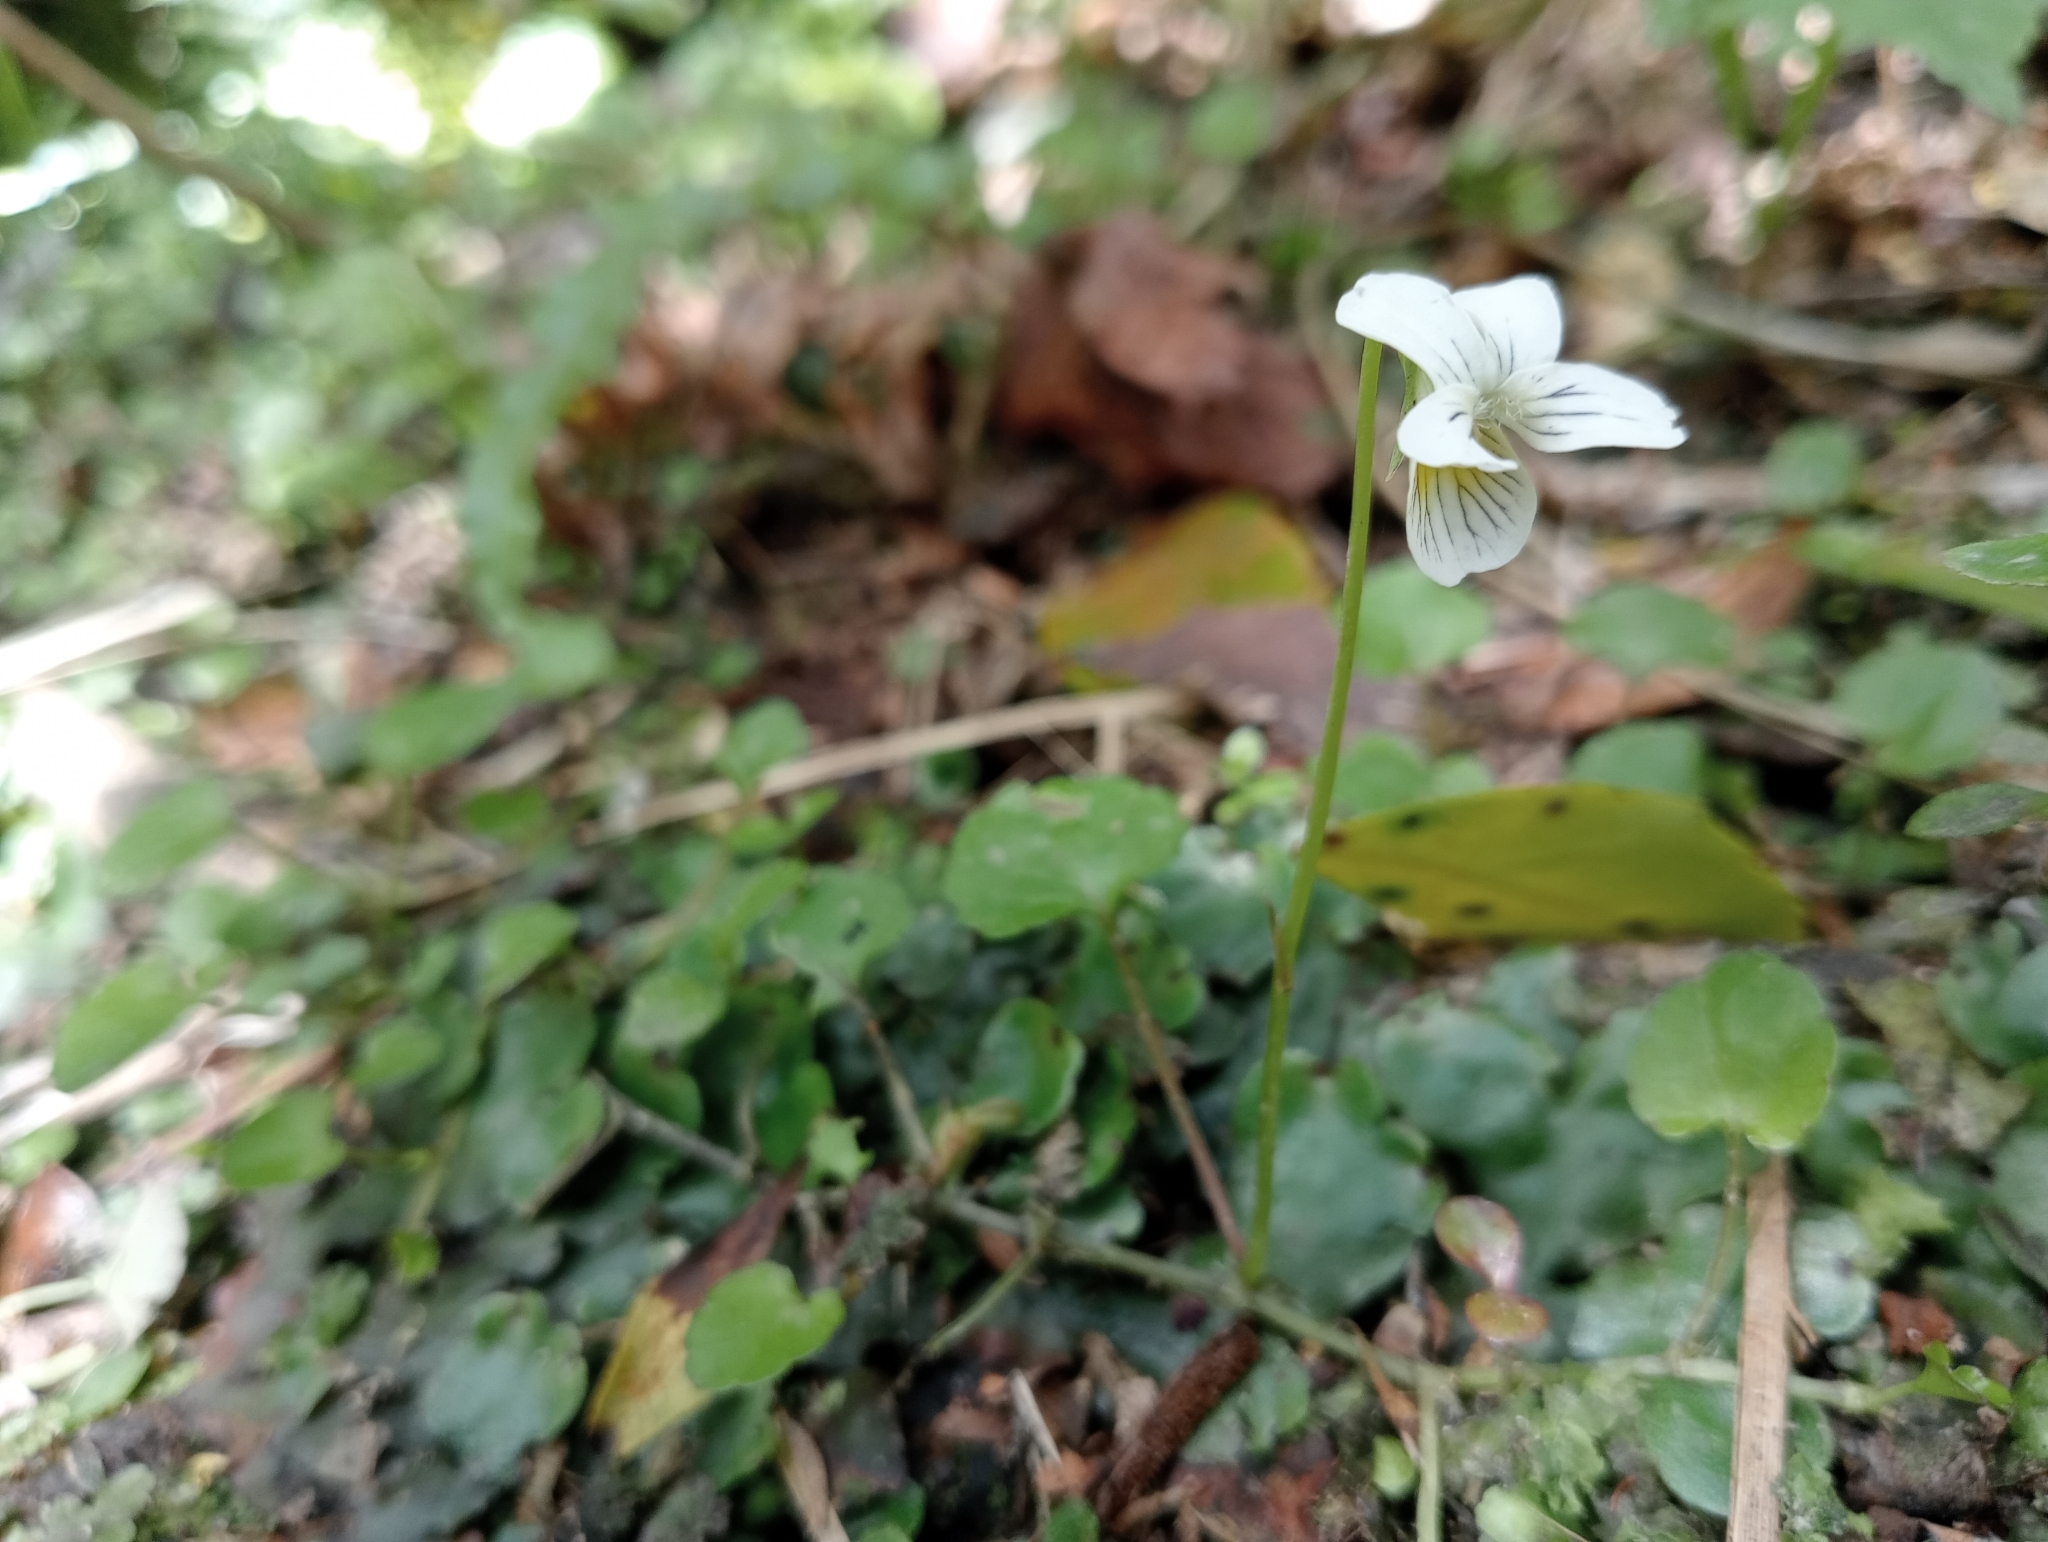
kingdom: Plantae
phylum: Tracheophyta
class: Magnoliopsida
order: Malpighiales
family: Violaceae
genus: Viola
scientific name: Viola filicaulis
